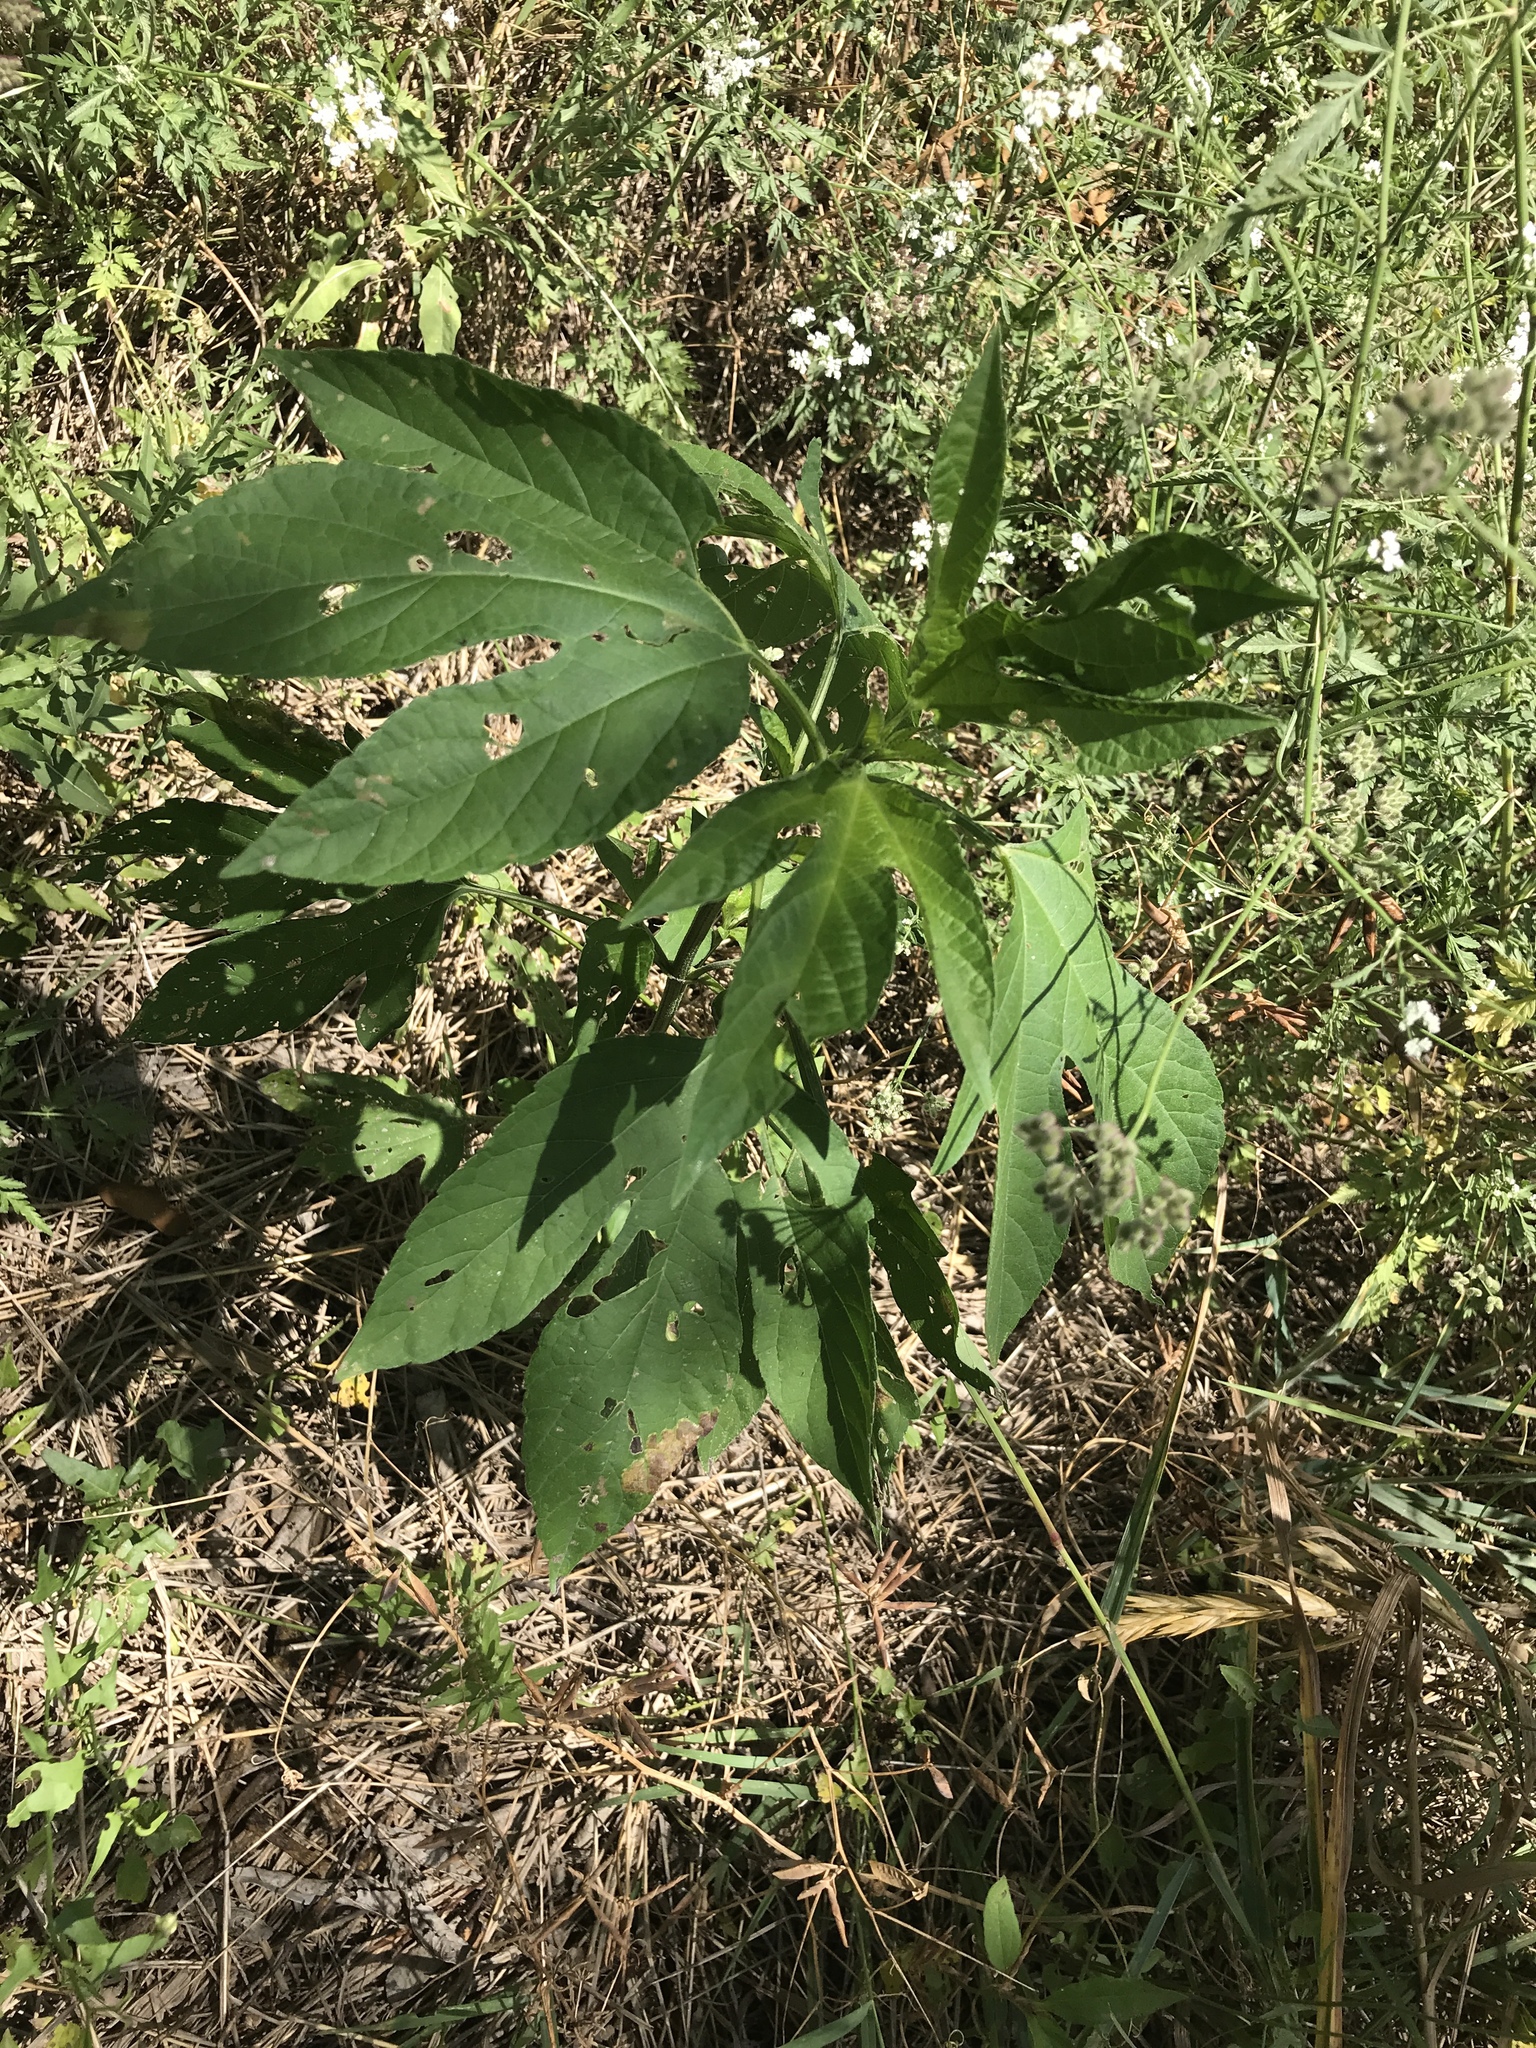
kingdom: Plantae
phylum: Tracheophyta
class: Magnoliopsida
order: Asterales
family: Asteraceae
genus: Ambrosia
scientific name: Ambrosia trifida
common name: Giant ragweed
